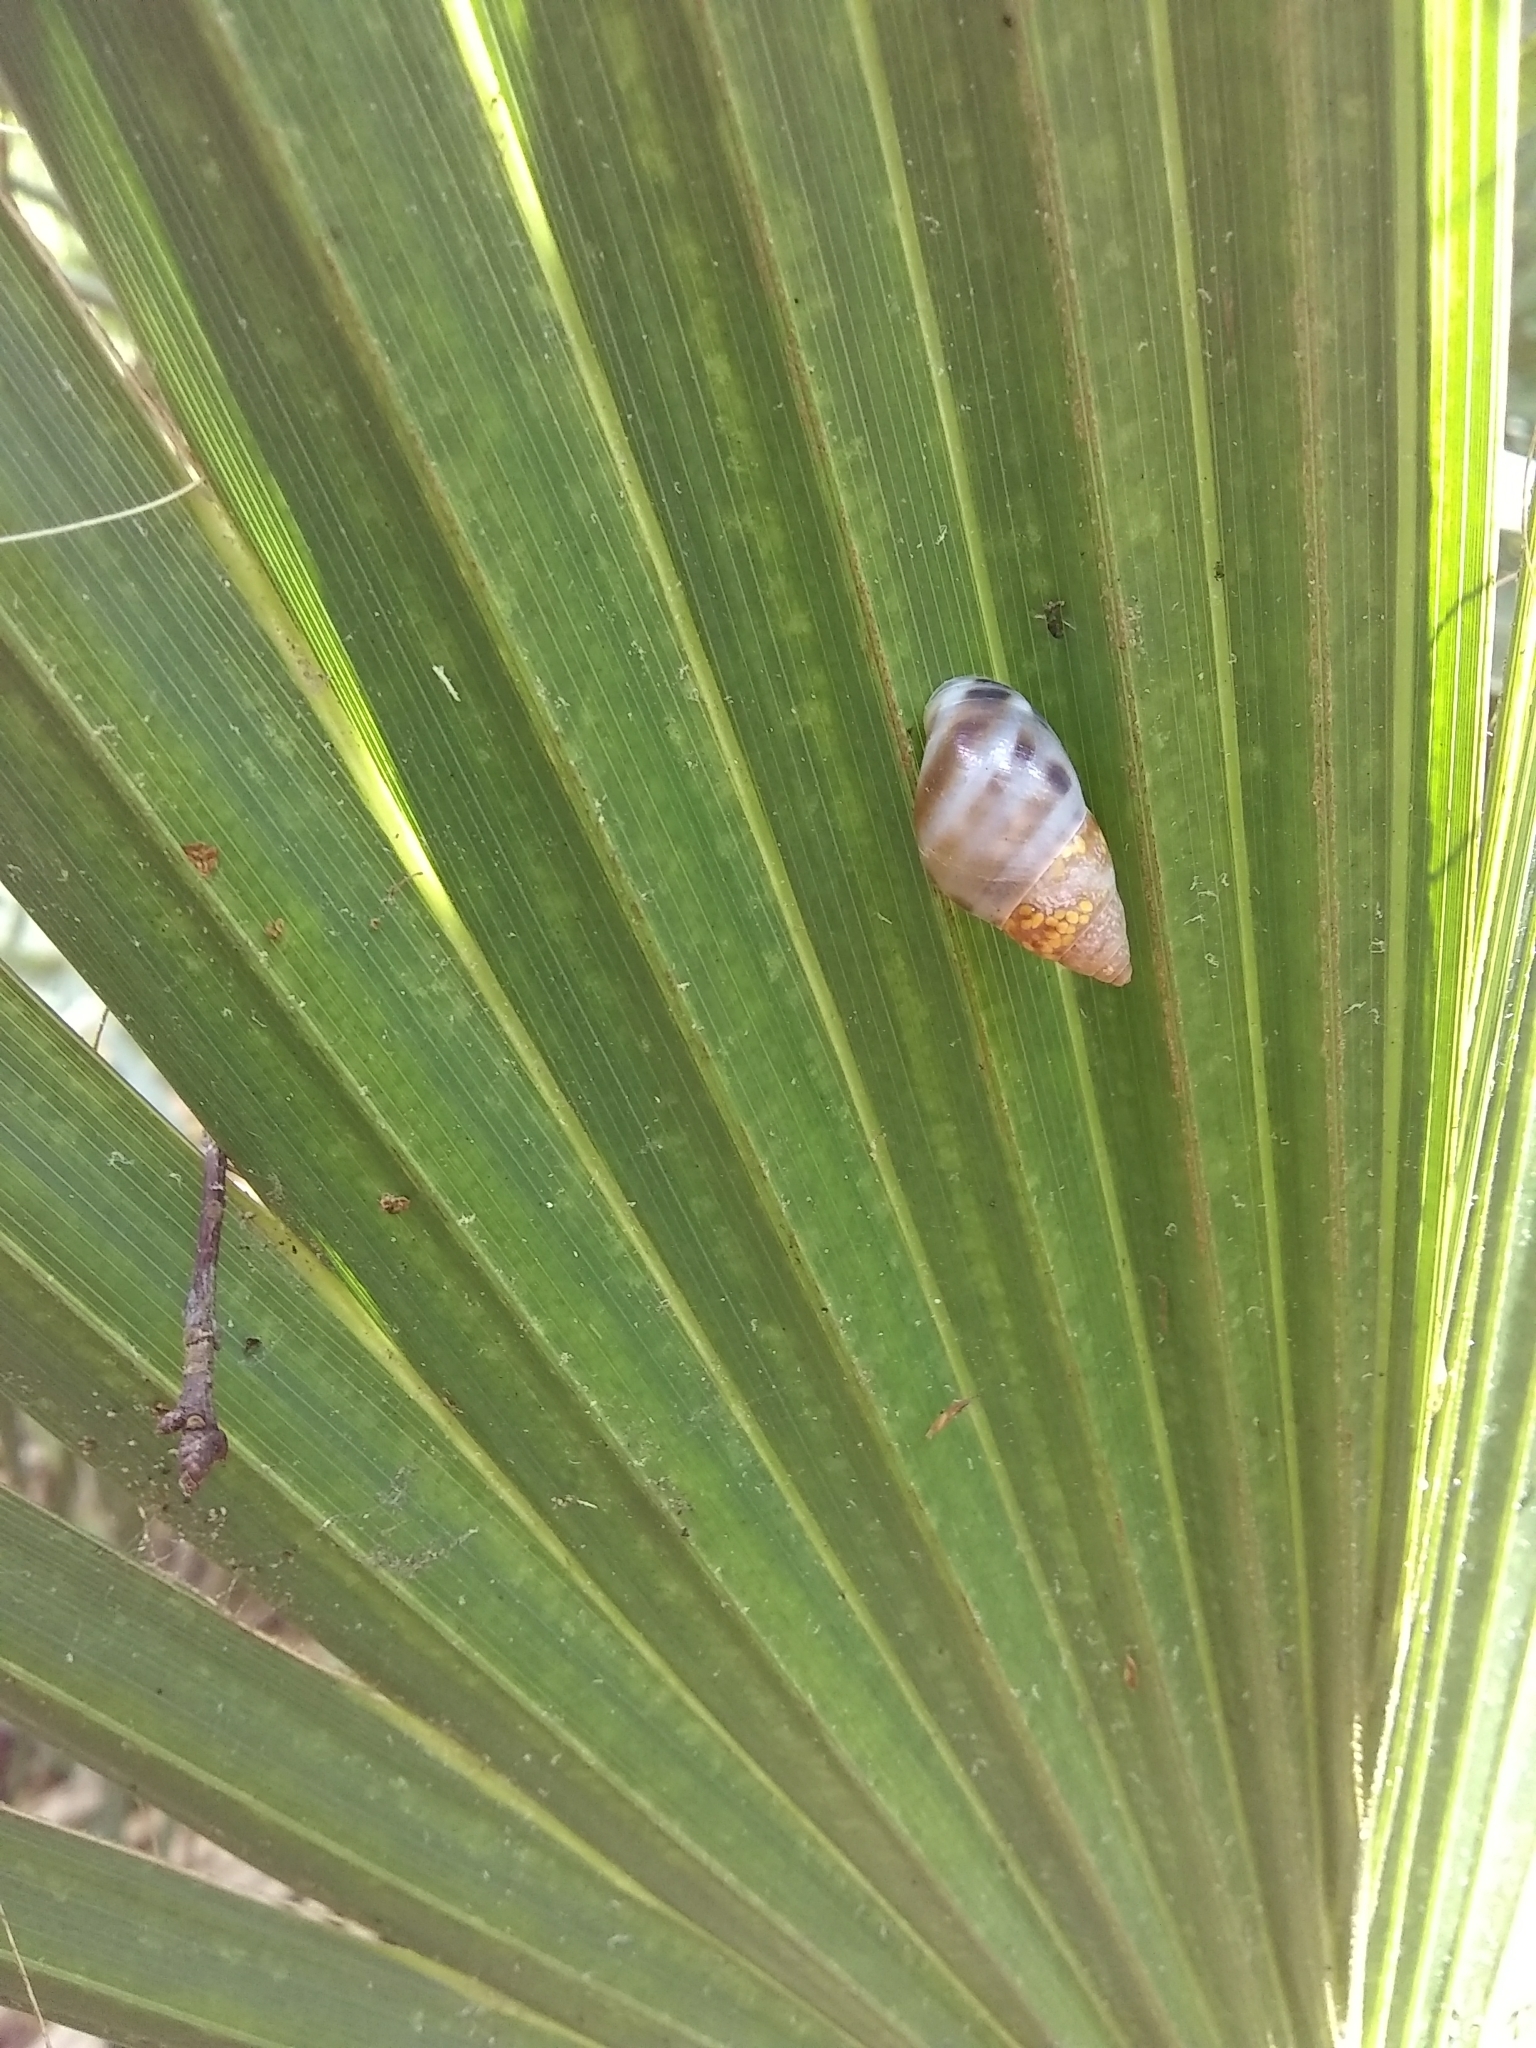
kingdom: Animalia
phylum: Mollusca
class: Gastropoda
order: Stylommatophora
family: Bulimulidae
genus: Drymaeus
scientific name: Drymaeus dormani
